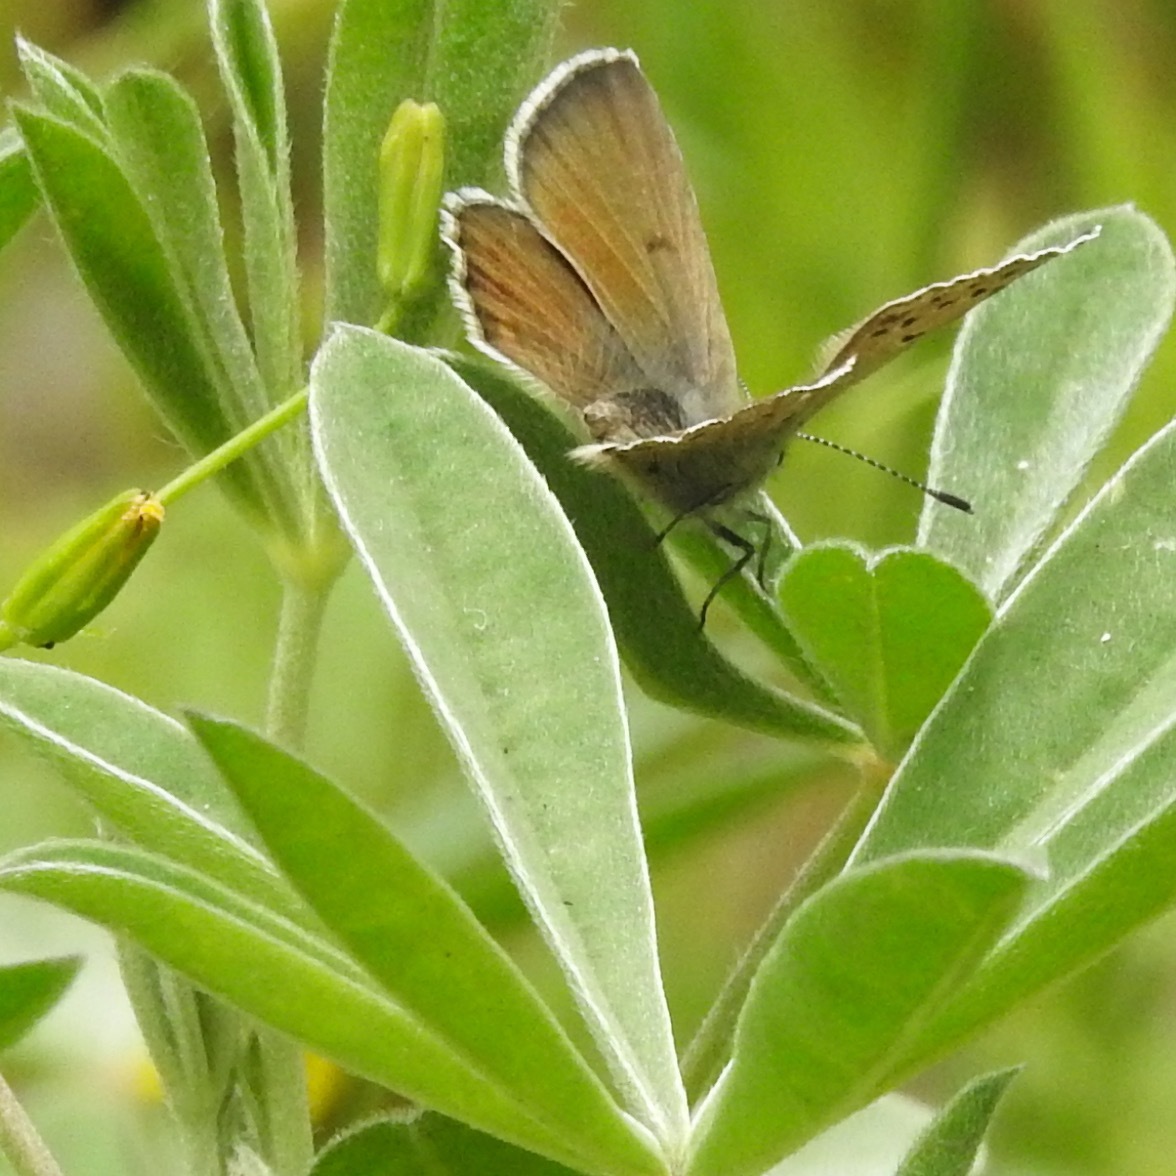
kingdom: Animalia
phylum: Arthropoda
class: Insecta
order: Lepidoptera
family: Lycaenidae
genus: Icaricia
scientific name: Icaricia icarioides
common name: Boisduval's blue
